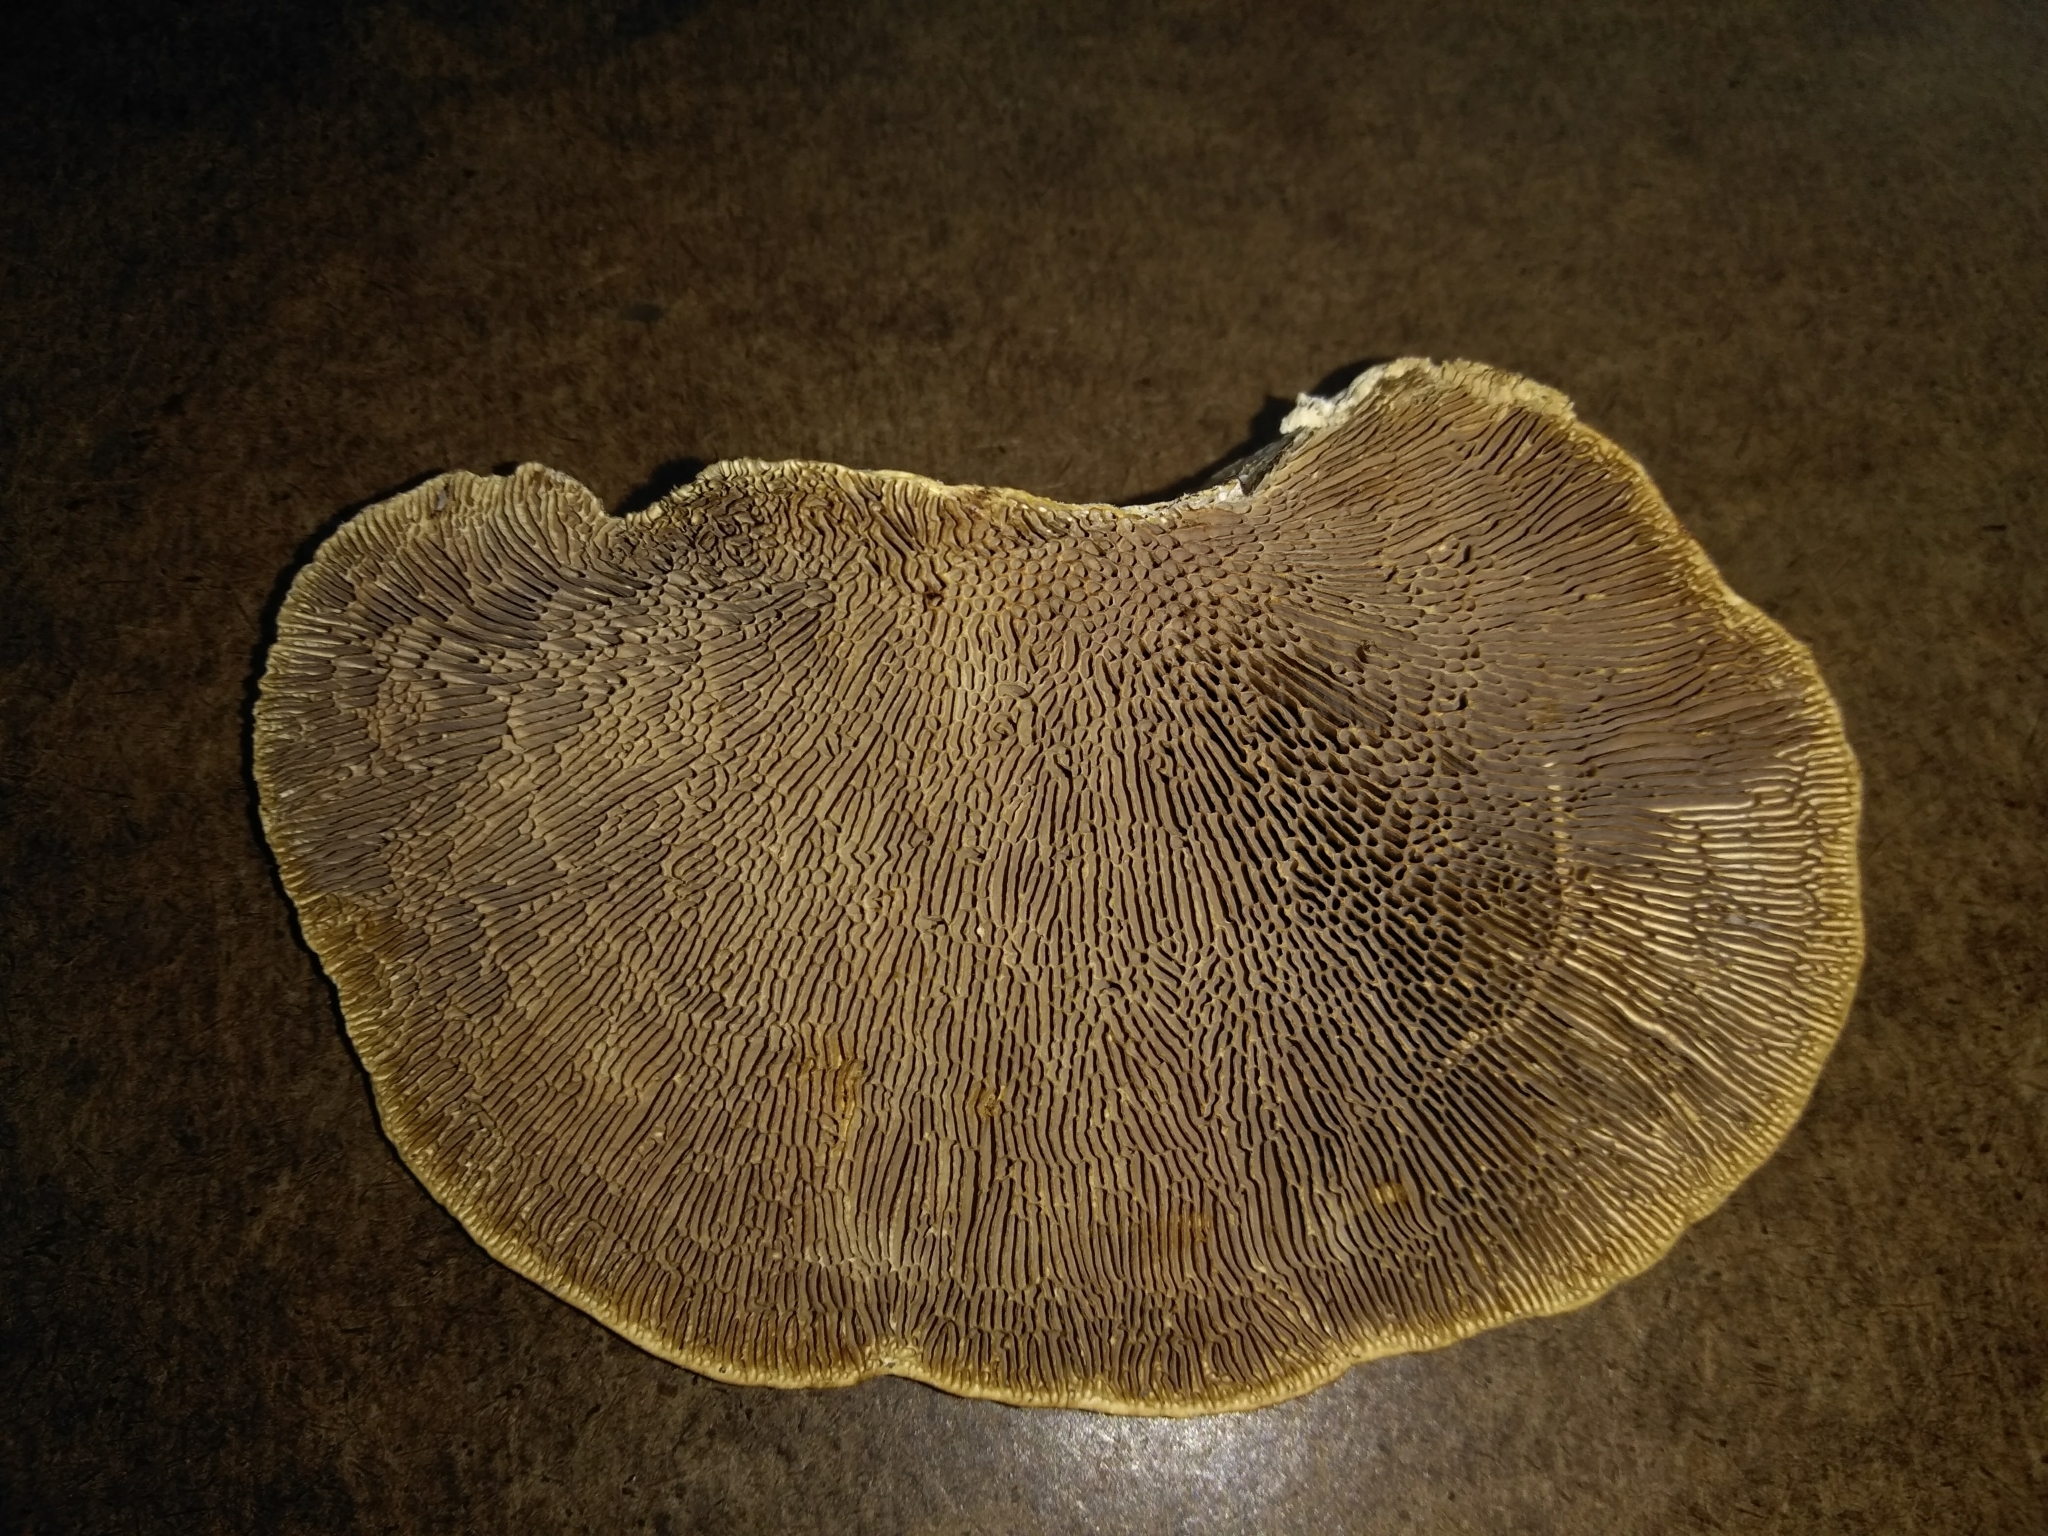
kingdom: Fungi
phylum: Basidiomycota
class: Agaricomycetes
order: Polyporales
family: Polyporaceae
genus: Daedaleopsis
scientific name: Daedaleopsis confragosa
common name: Blushing bracket
